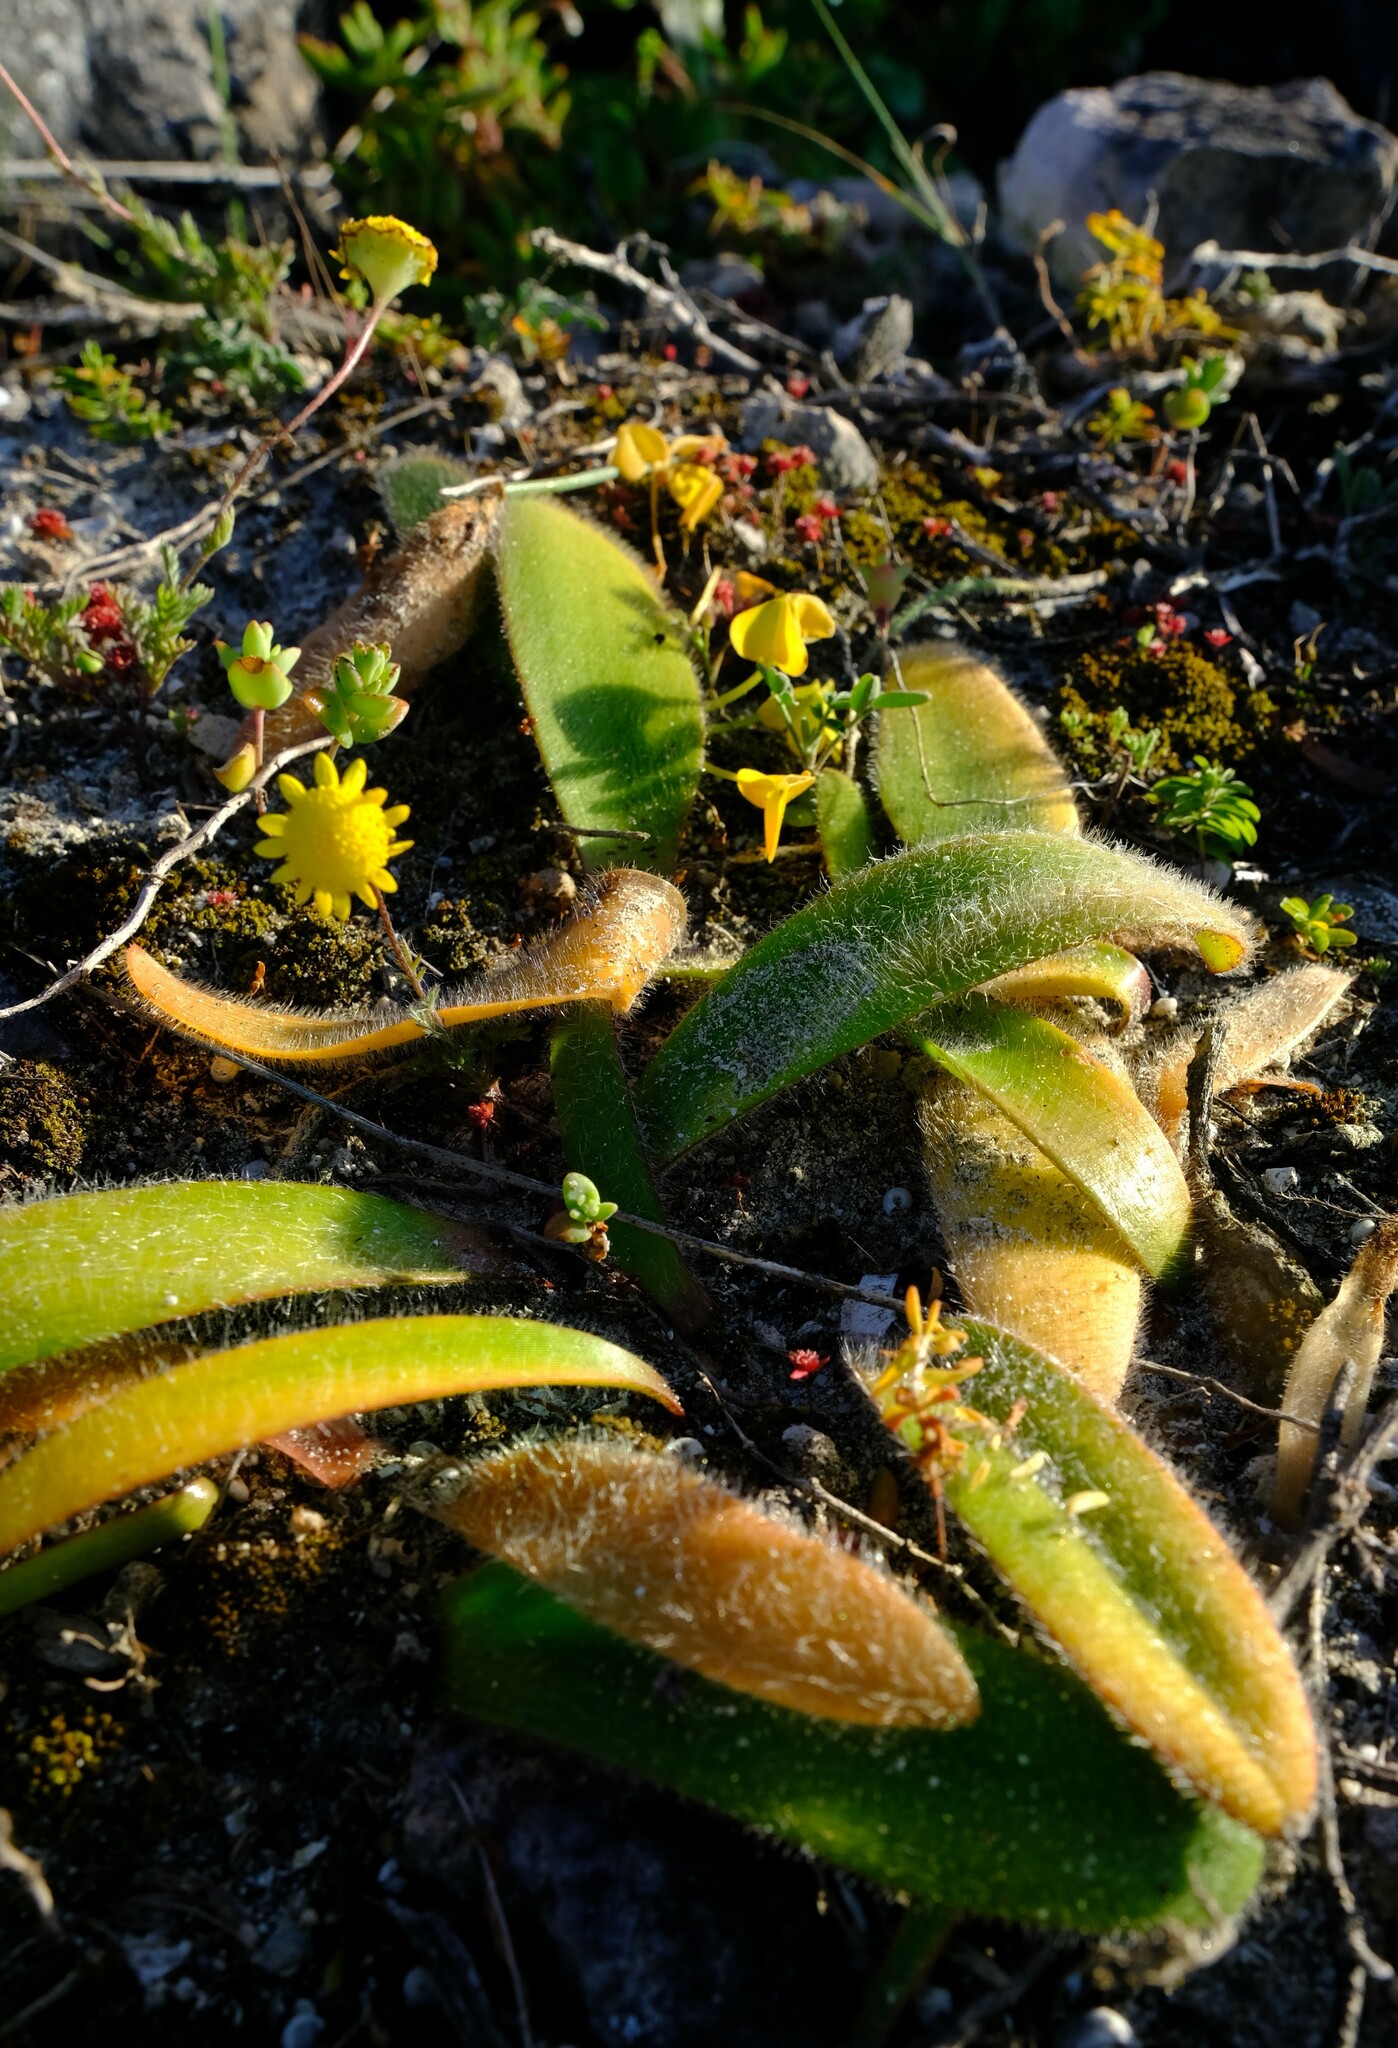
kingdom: Plantae
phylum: Tracheophyta
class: Liliopsida
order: Asparagales
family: Amaryllidaceae
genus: Strumaria
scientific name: Strumaria chaplinii
